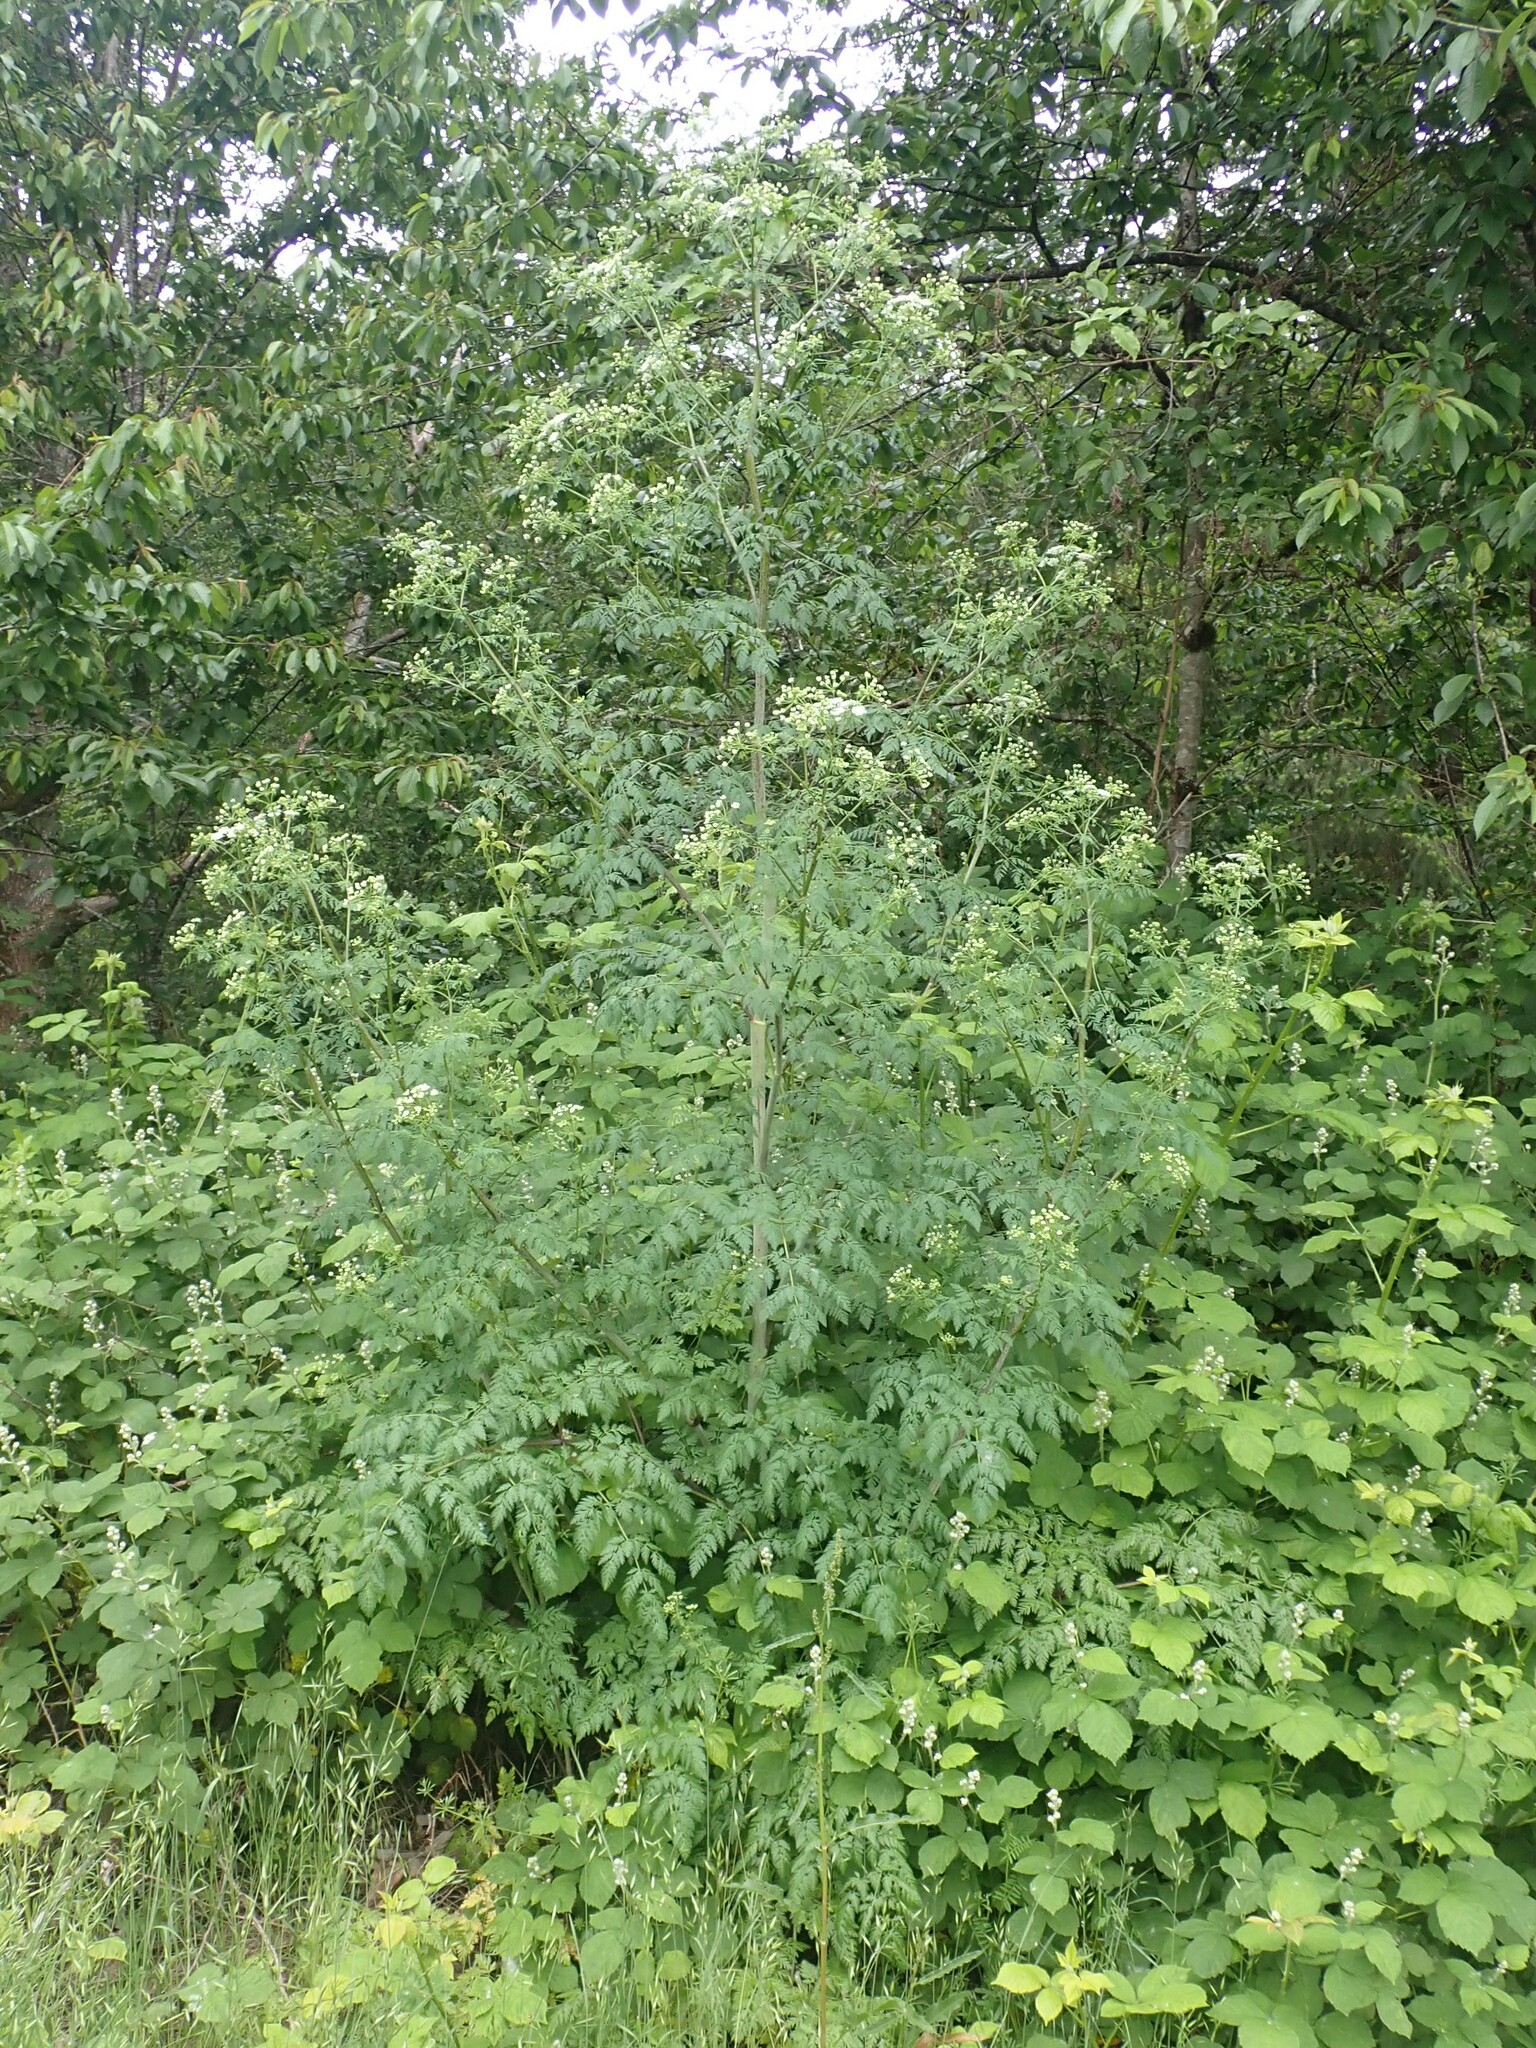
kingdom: Plantae
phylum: Tracheophyta
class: Magnoliopsida
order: Apiales
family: Apiaceae
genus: Conium
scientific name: Conium maculatum
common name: Hemlock
